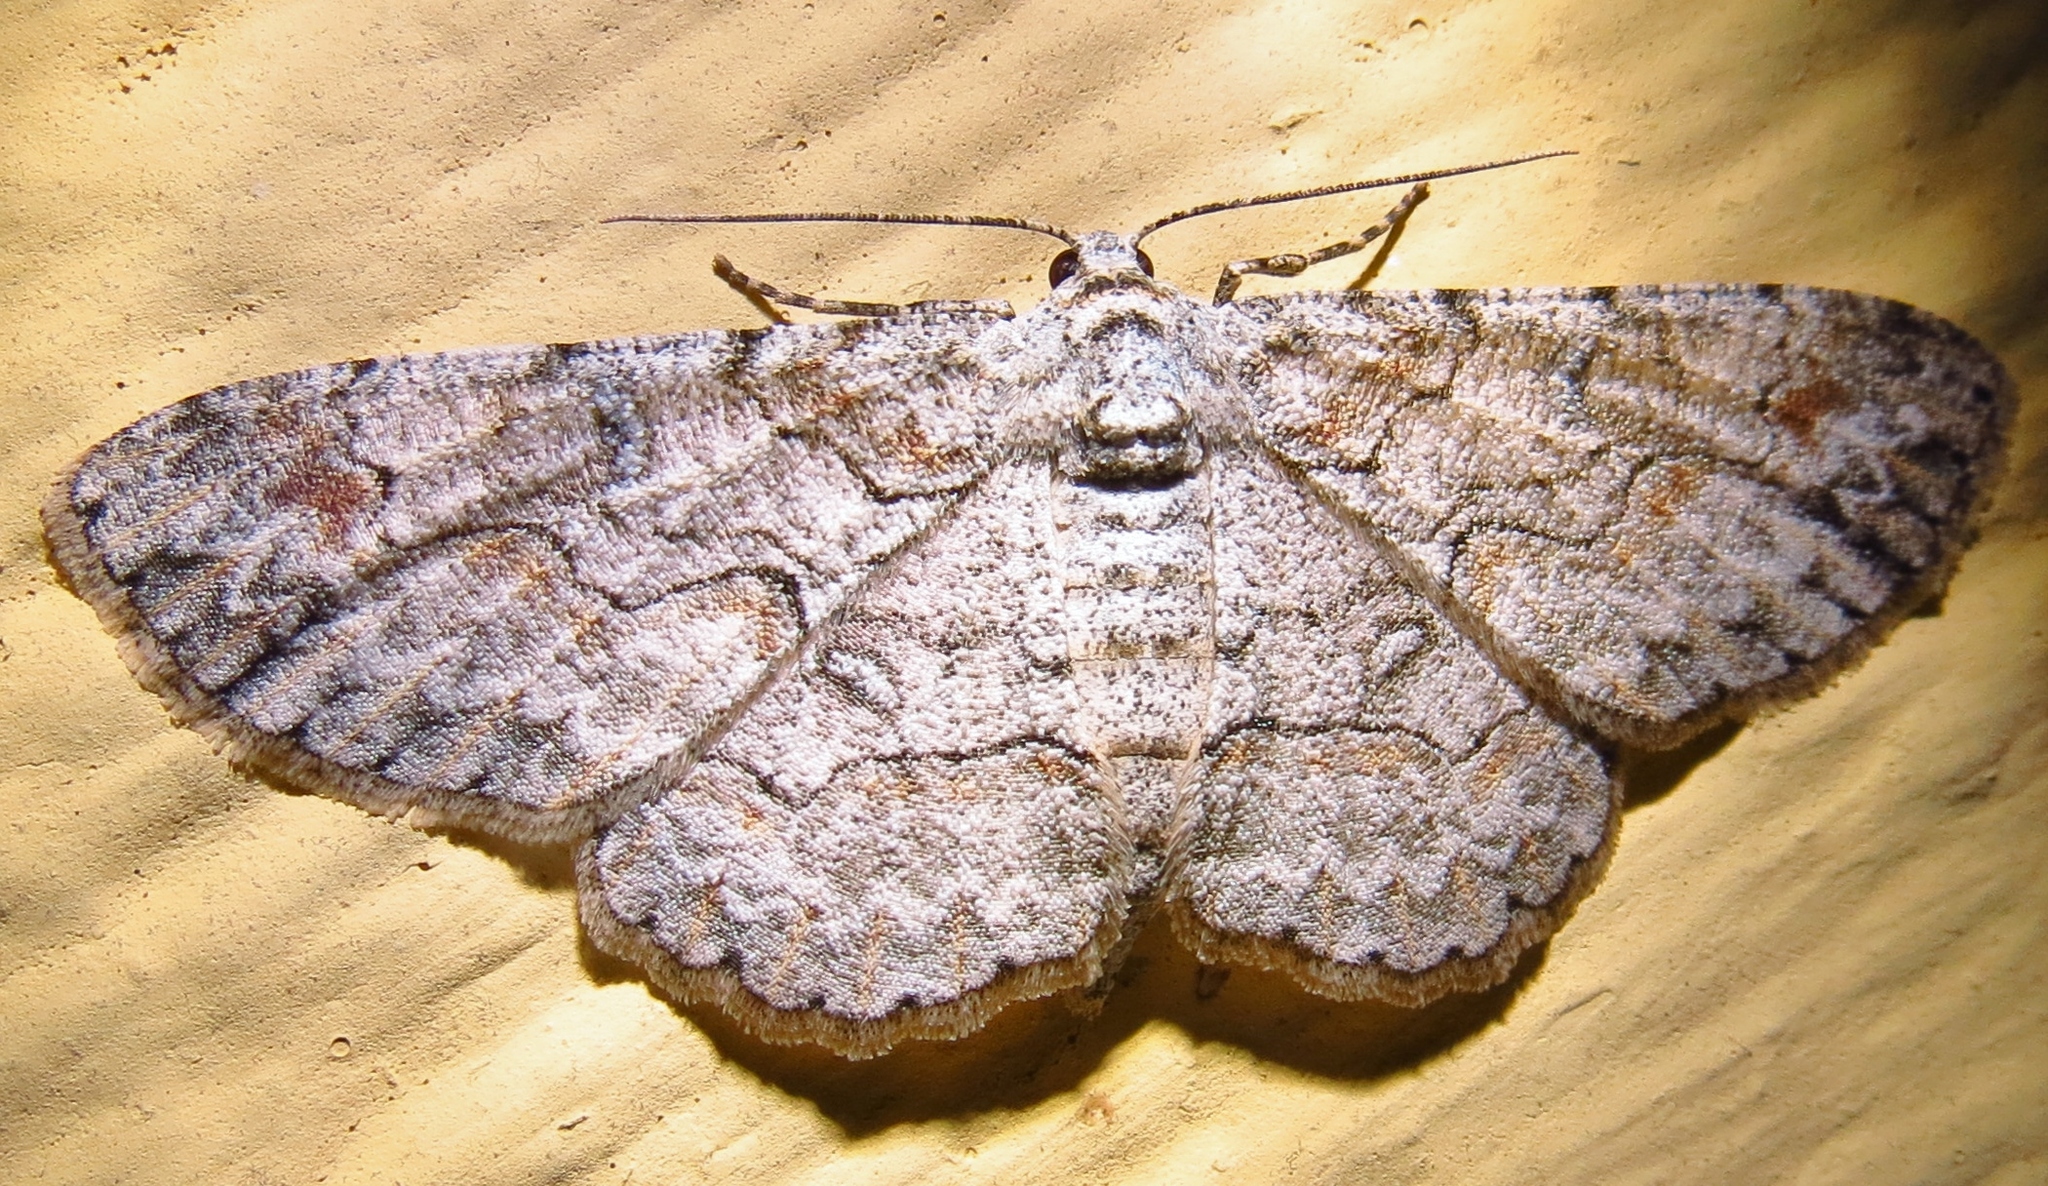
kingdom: Animalia
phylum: Arthropoda
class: Insecta
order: Lepidoptera
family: Geometridae
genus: Iridopsis
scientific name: Iridopsis defectaria
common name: Brown-shaded gray
